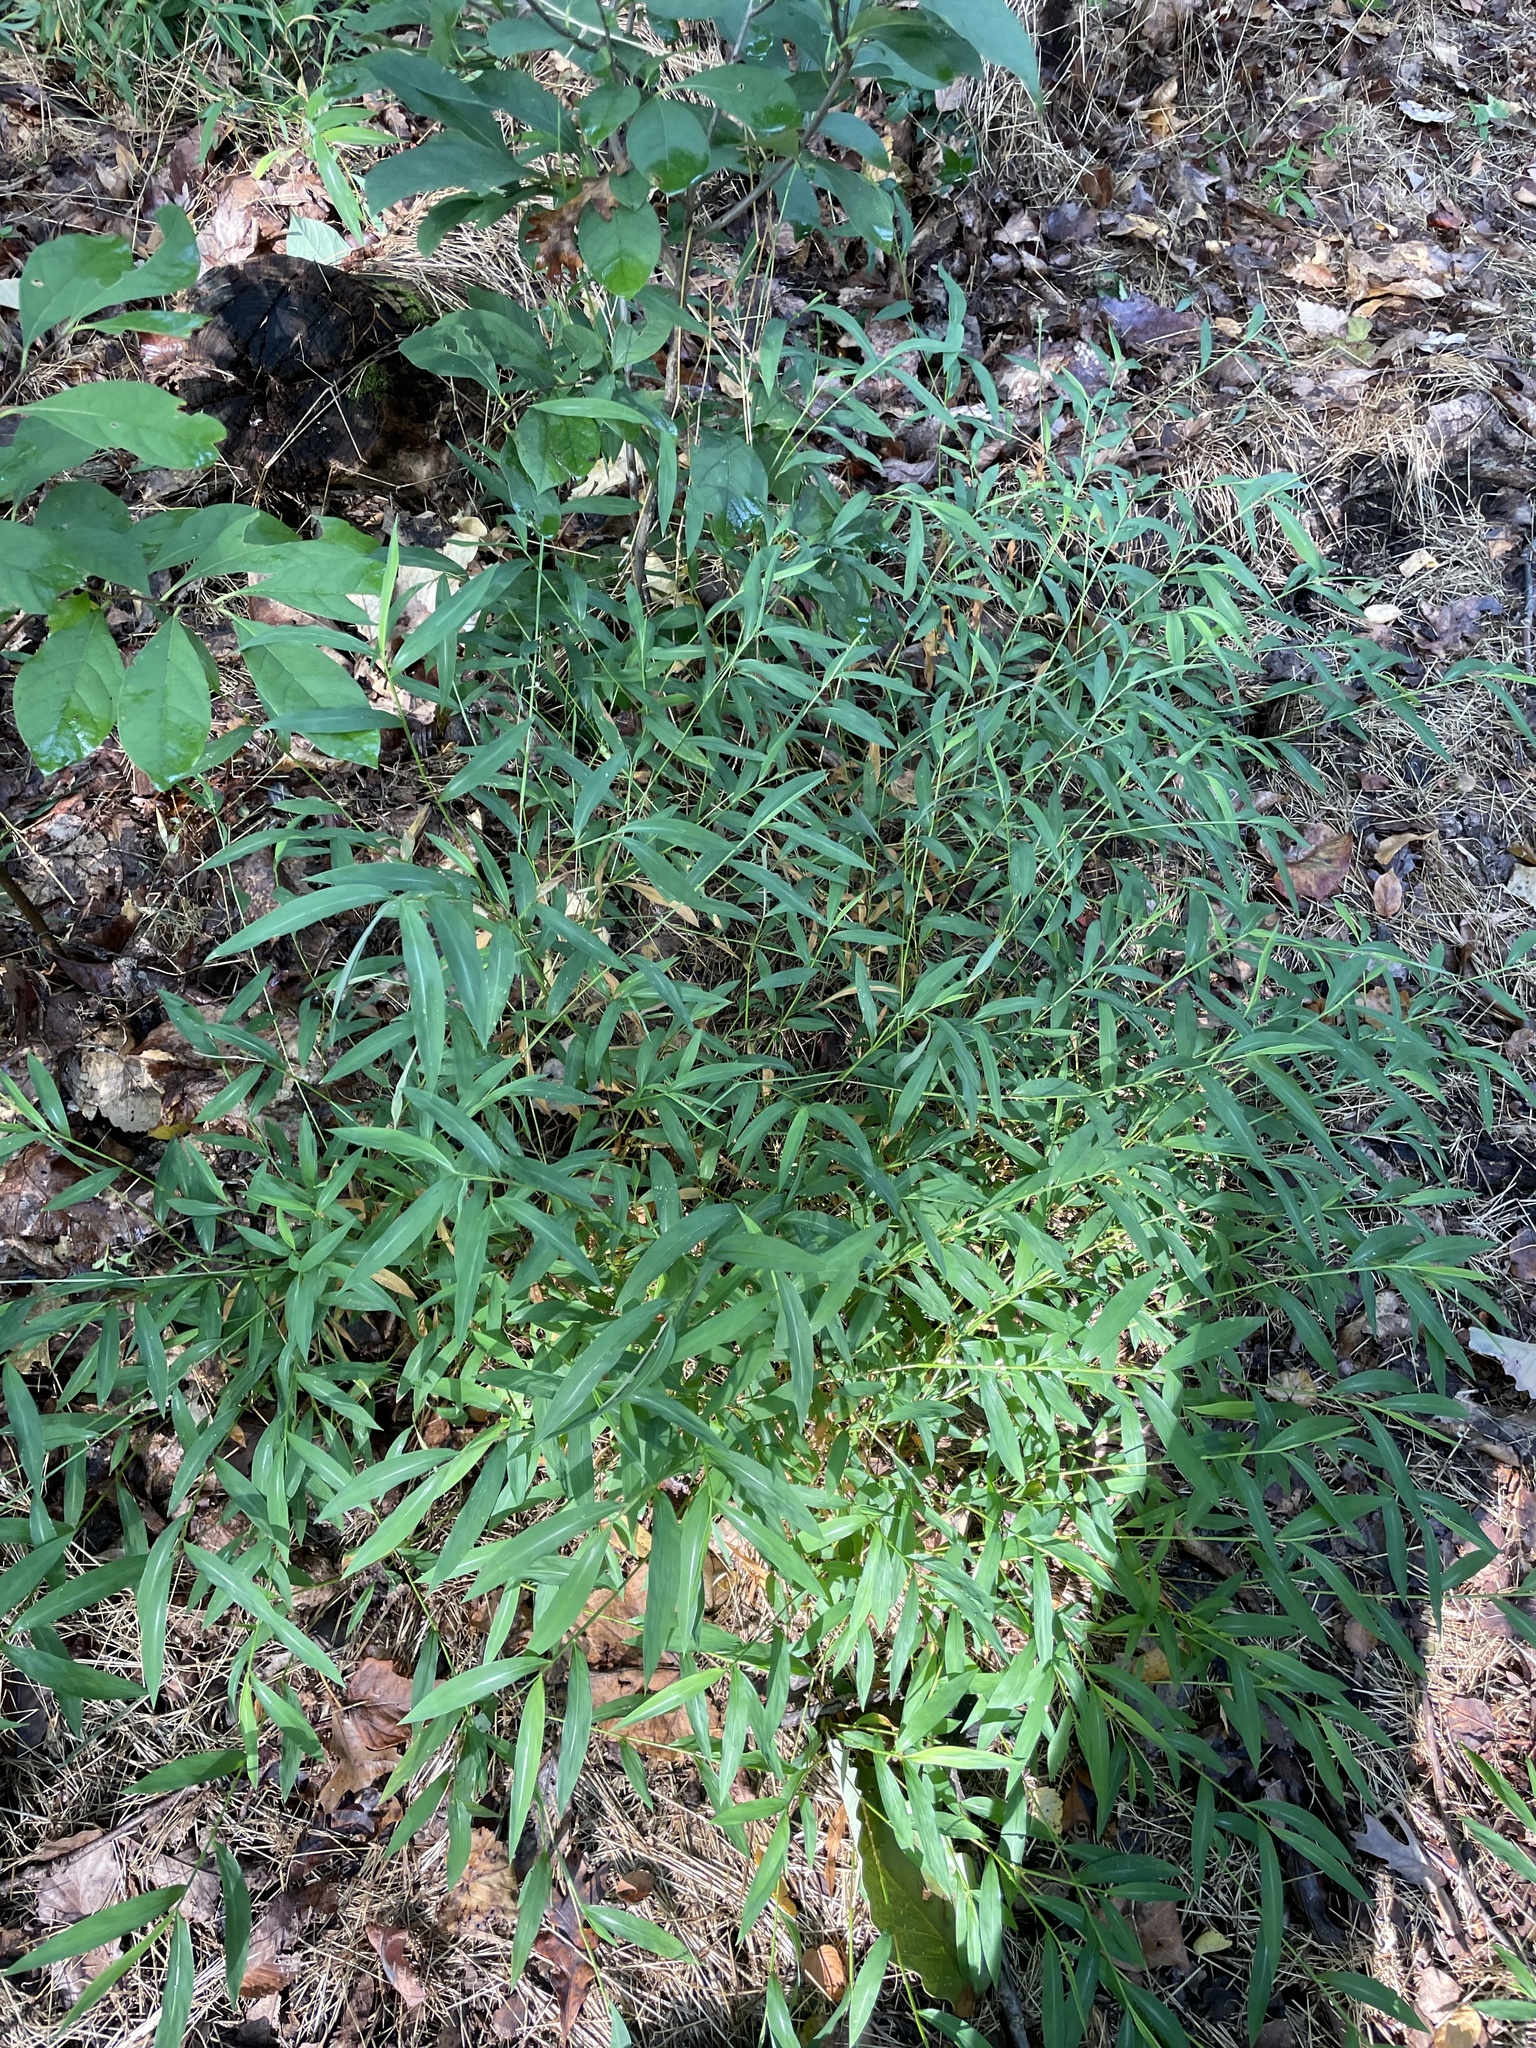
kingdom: Plantae
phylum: Tracheophyta
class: Liliopsida
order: Poales
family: Poaceae
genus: Microstegium
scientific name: Microstegium vimineum
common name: Japanese stiltgrass
